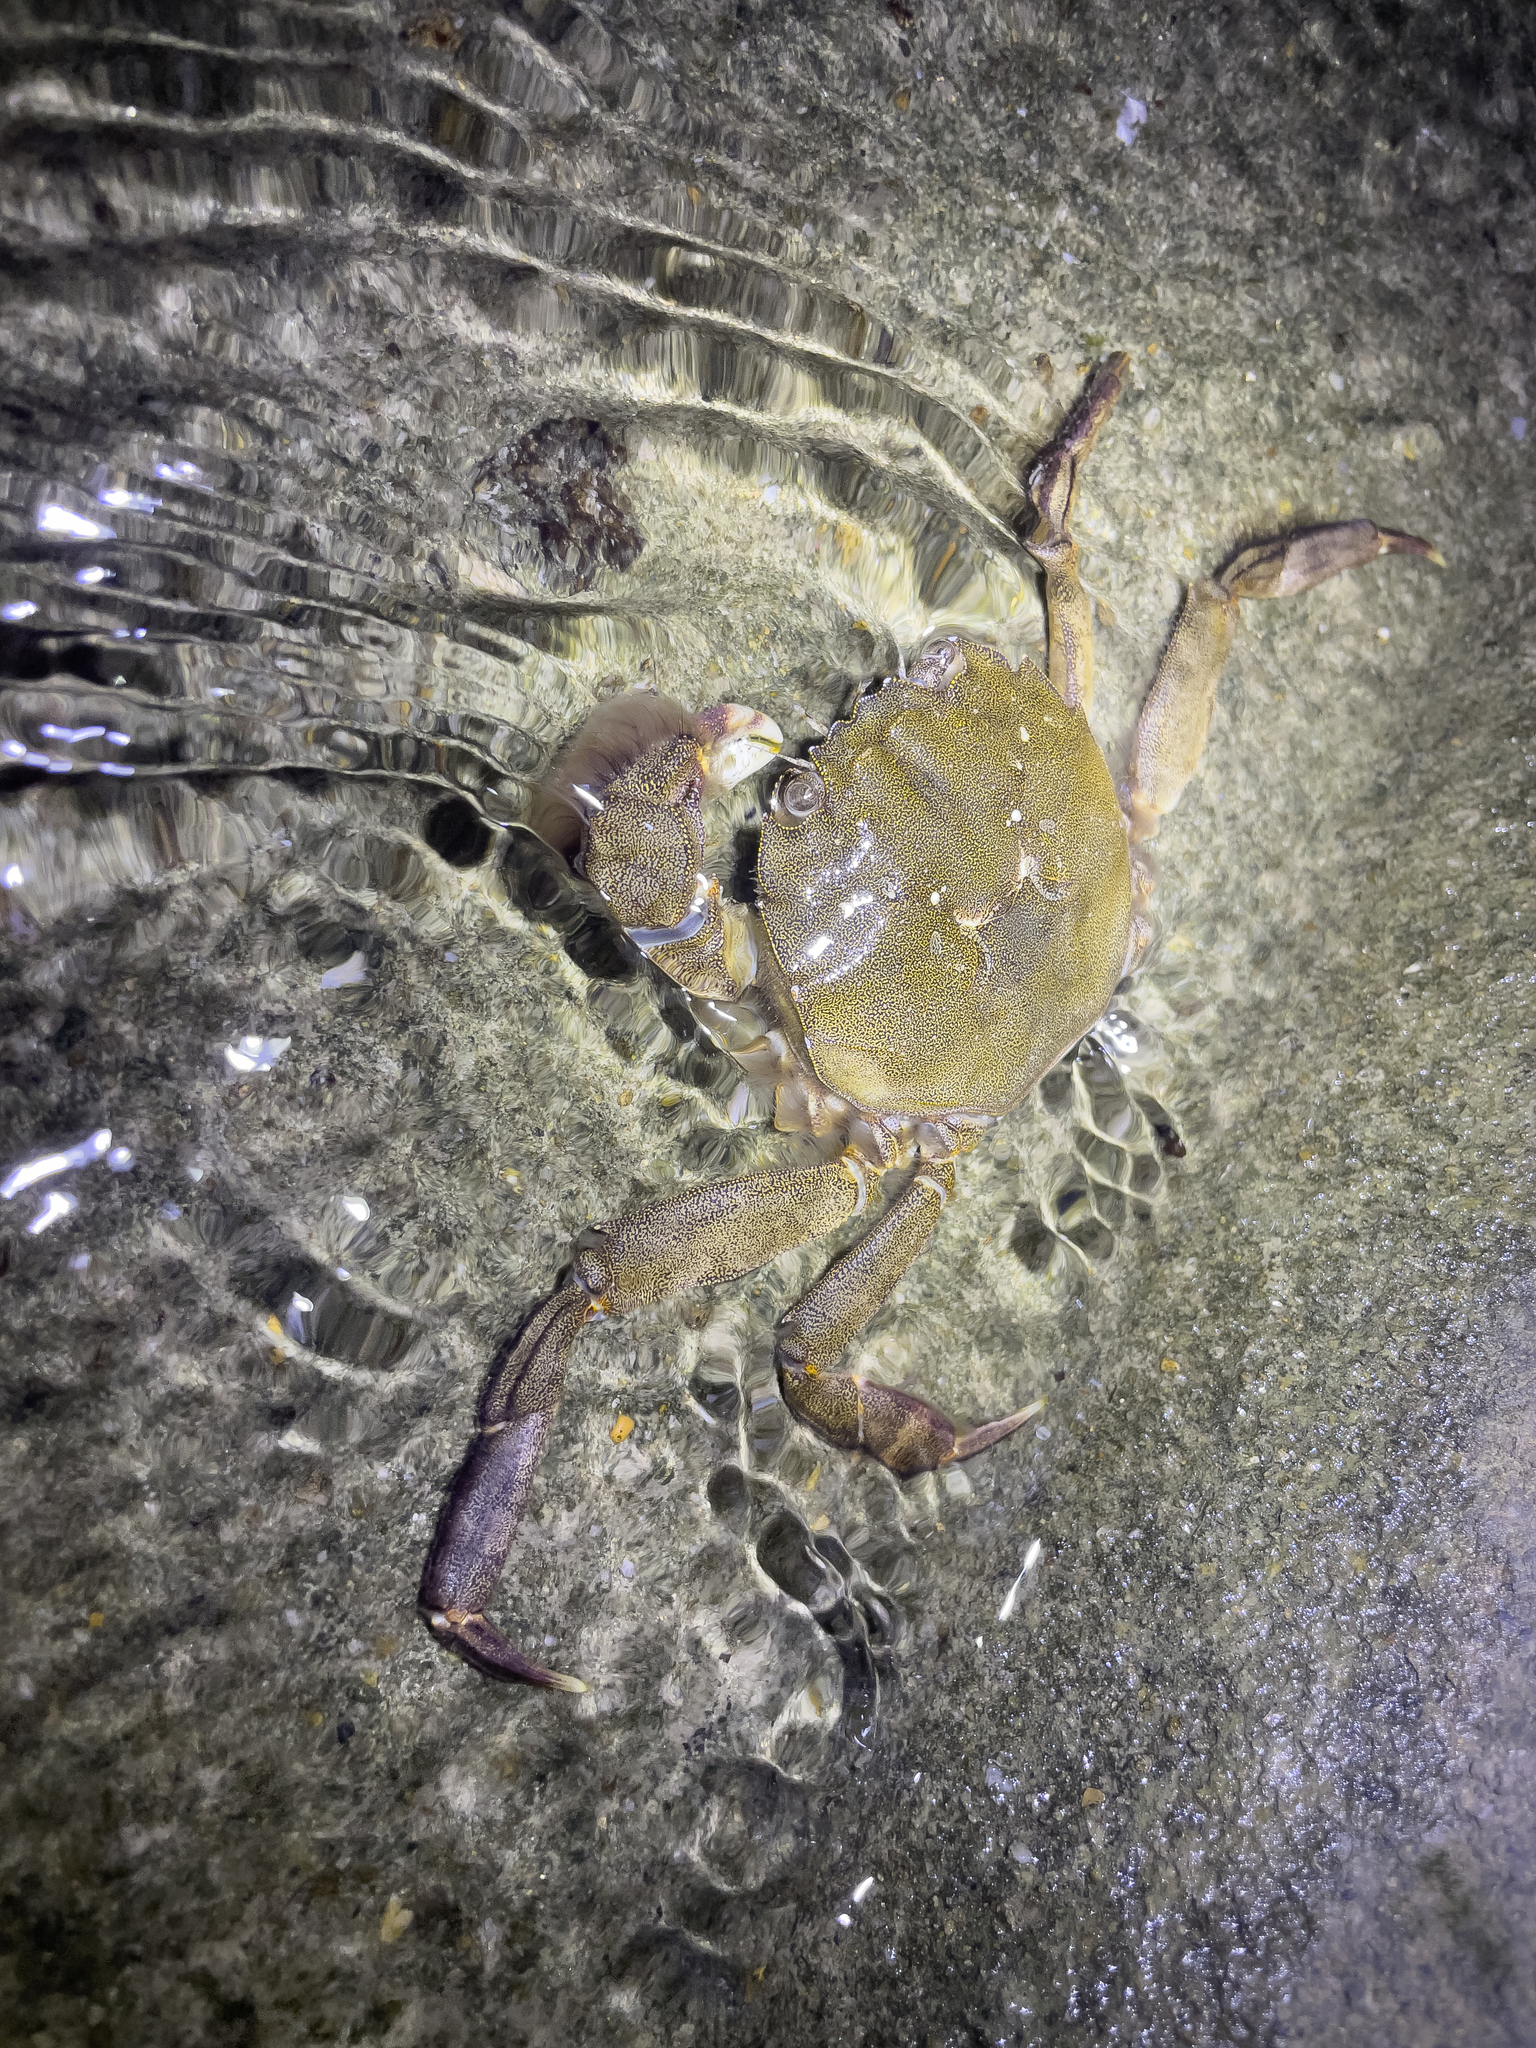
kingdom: Animalia
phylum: Arthropoda
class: Malacostraca
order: Decapoda
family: Varunidae
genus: Eriocheir
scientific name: Eriocheir japonica
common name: Japanese mitten crab
